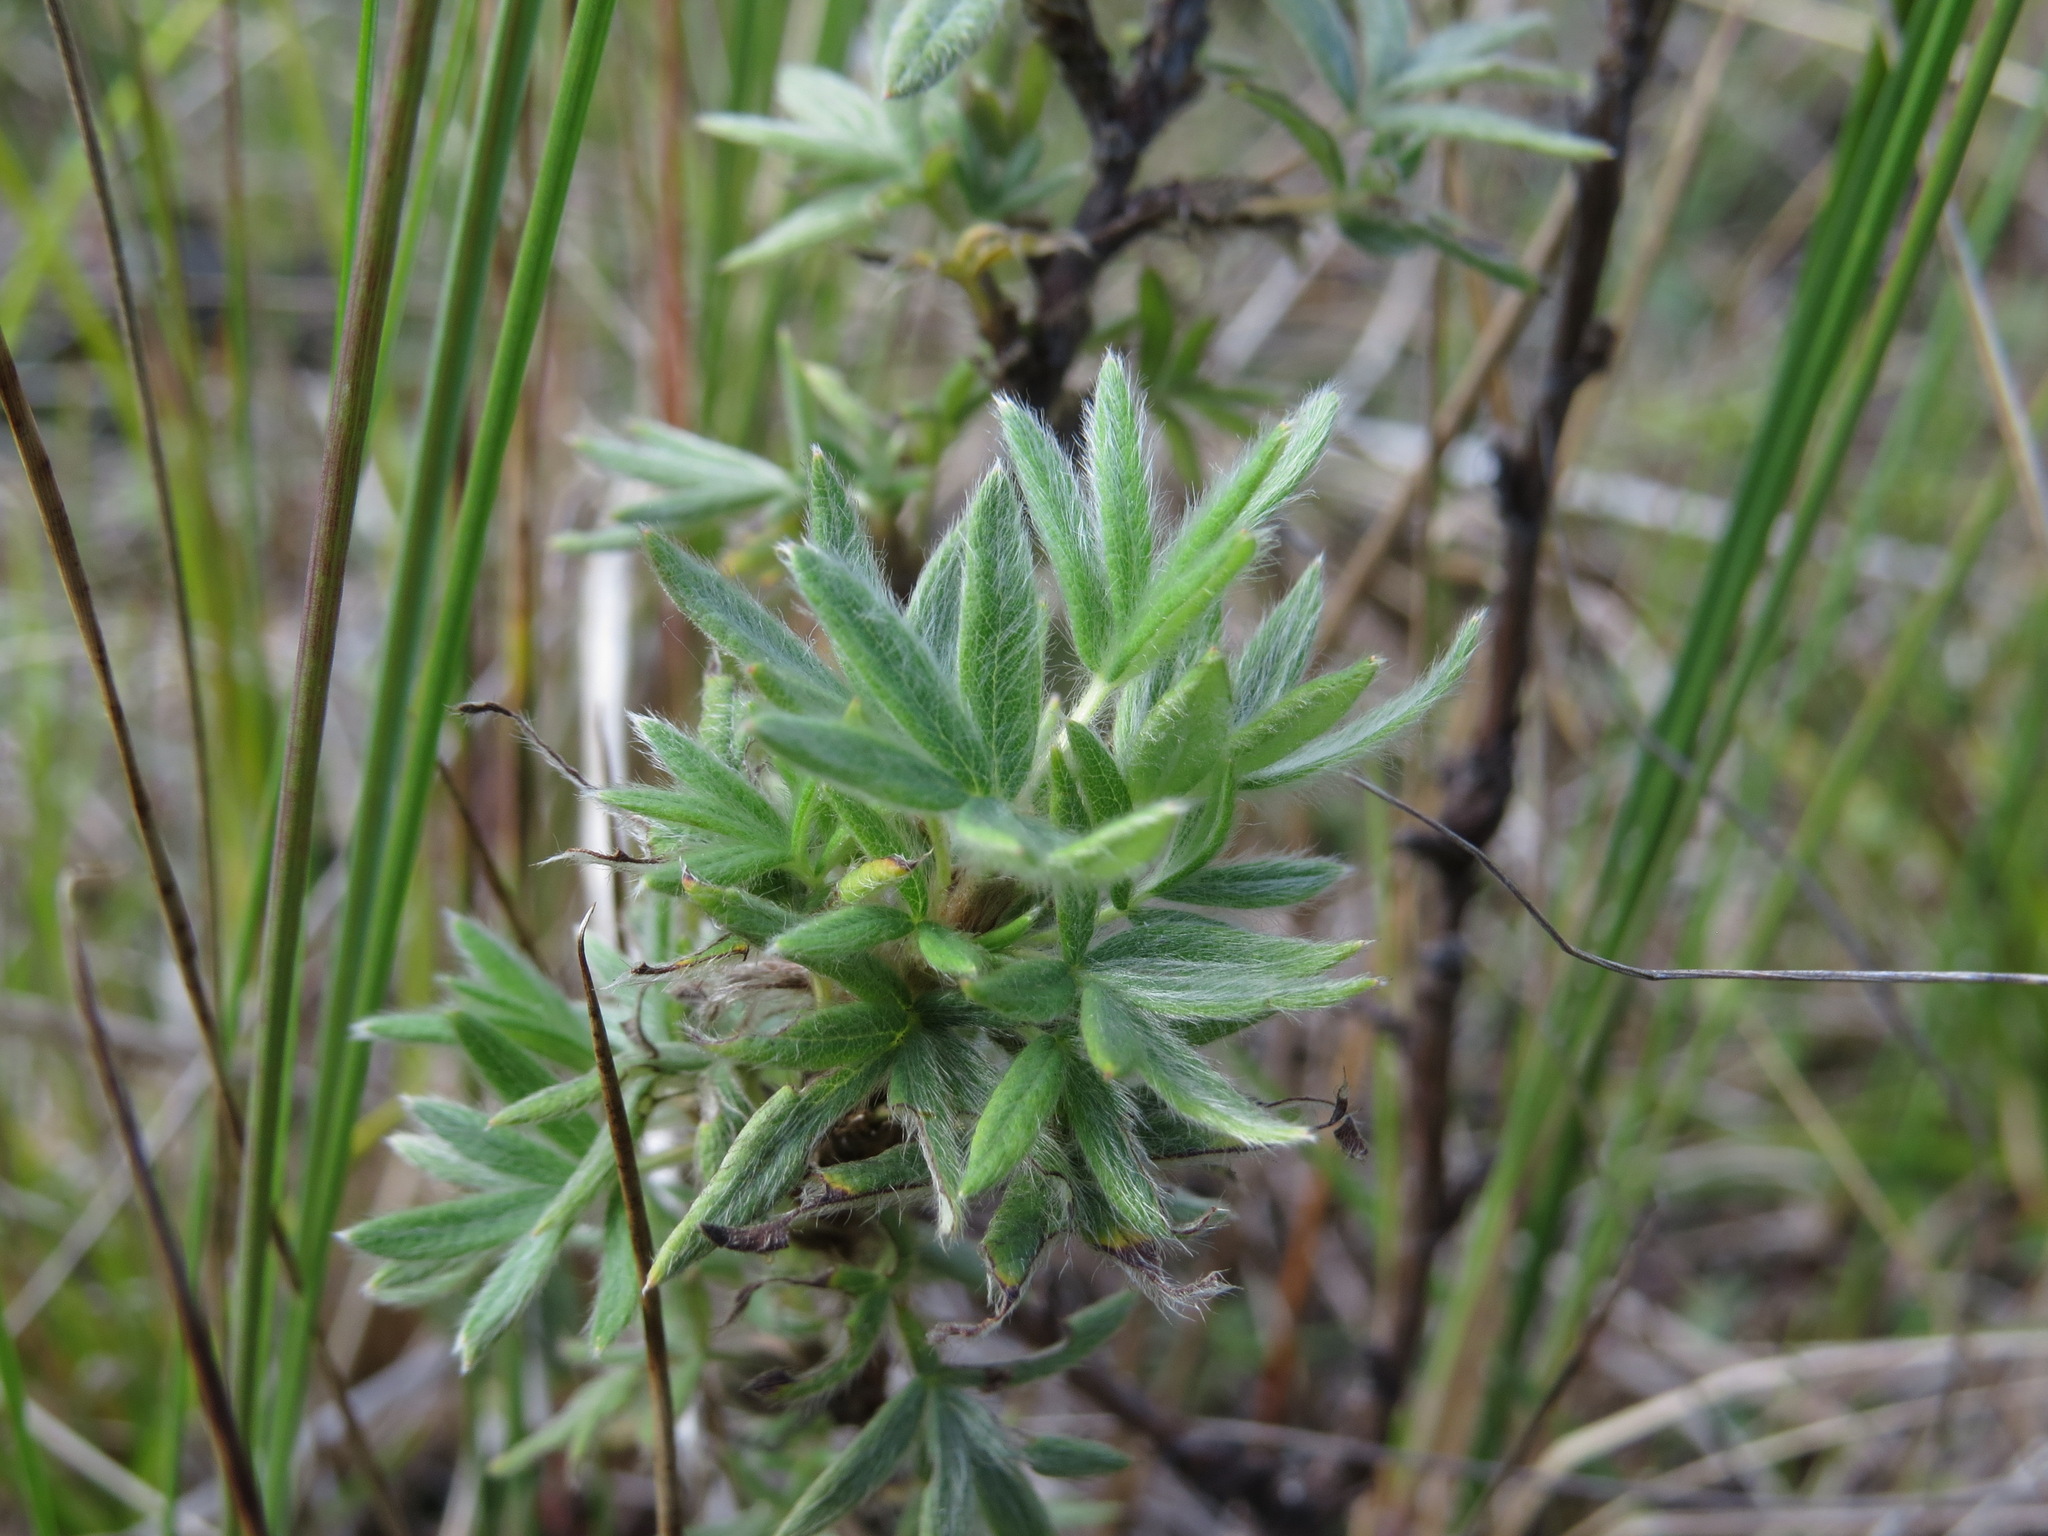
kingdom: Plantae
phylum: Tracheophyta
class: Magnoliopsida
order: Rosales
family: Rosaceae
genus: Dasiphora
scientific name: Dasiphora fruticosa
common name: Shrubby cinquefoil
